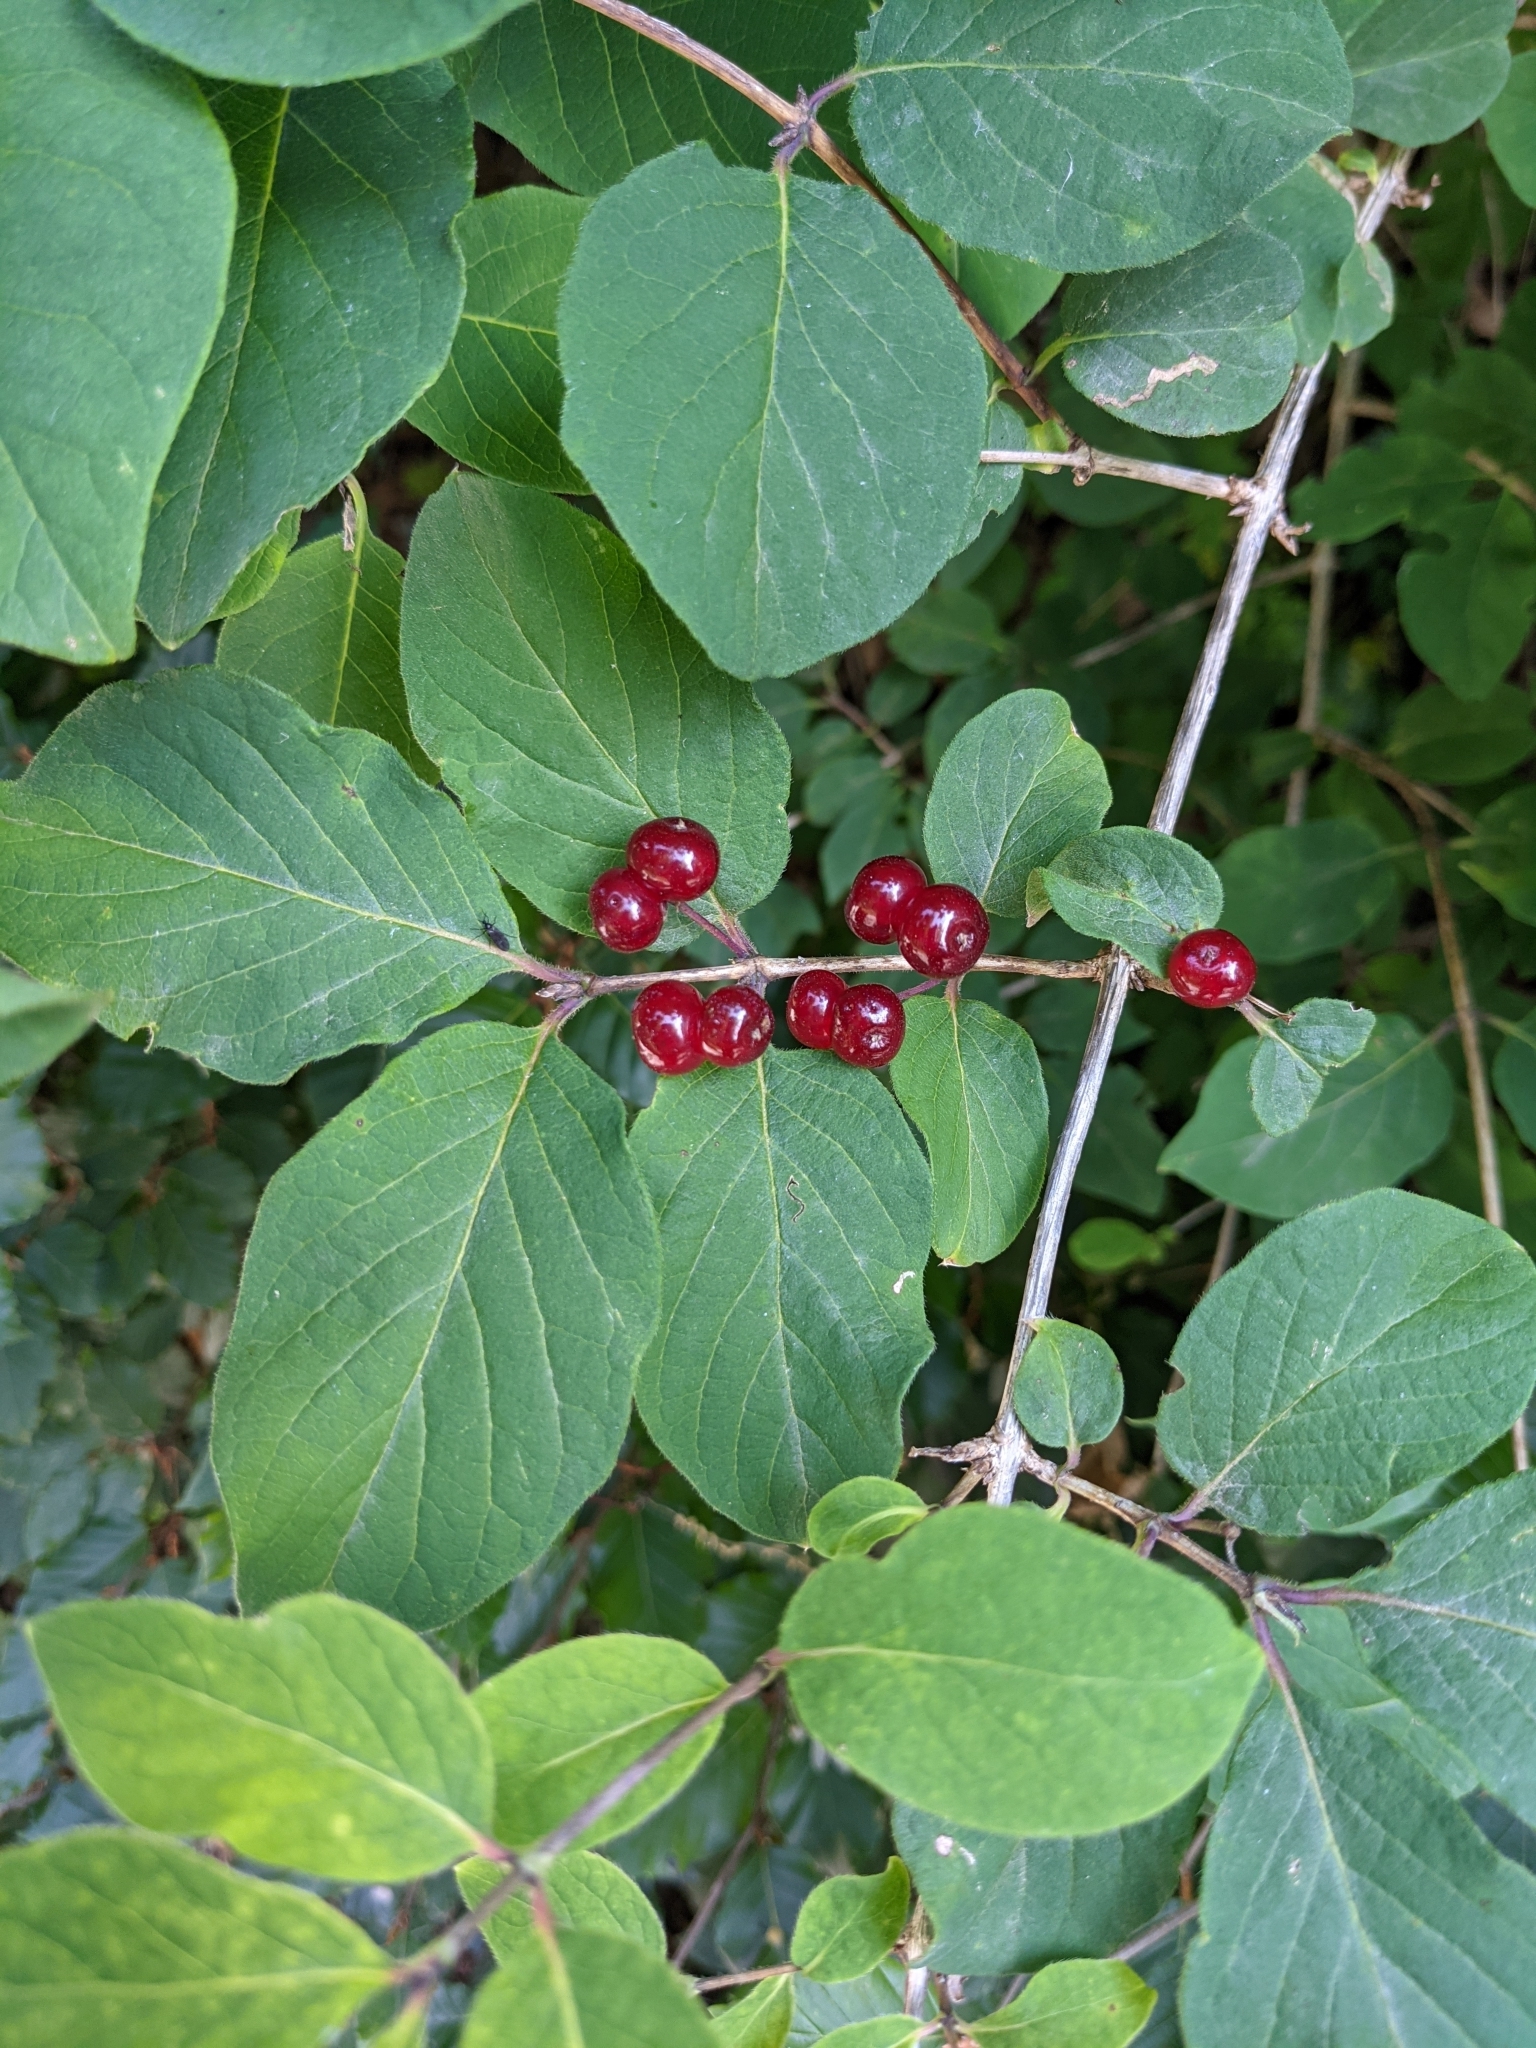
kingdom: Plantae
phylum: Tracheophyta
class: Magnoliopsida
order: Dipsacales
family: Caprifoliaceae
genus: Lonicera
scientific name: Lonicera xylosteum
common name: Fly honeysuckle
